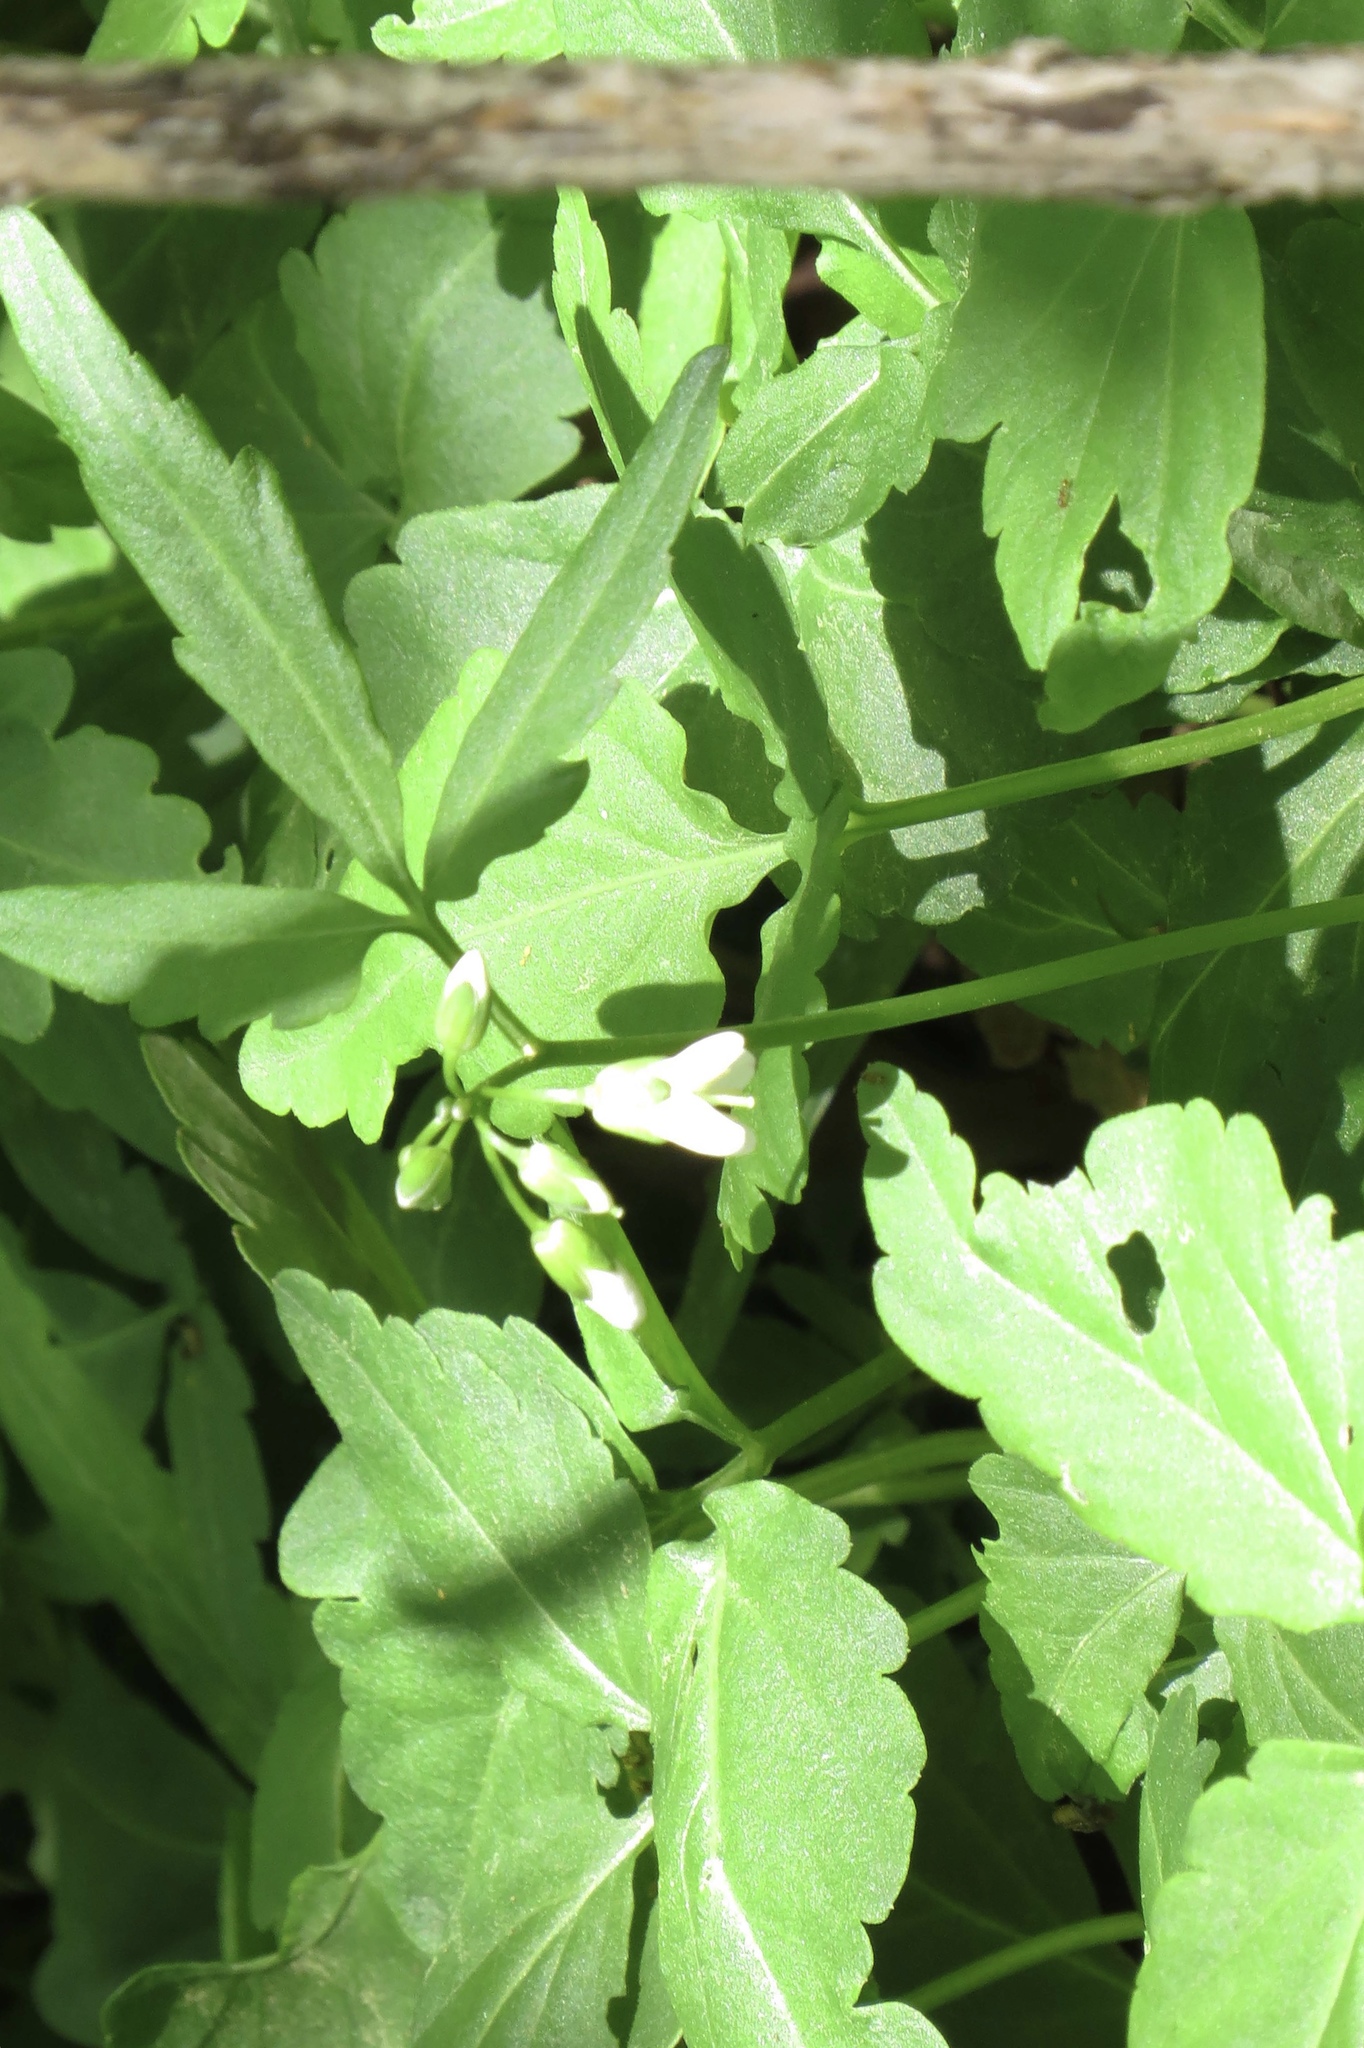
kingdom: Plantae
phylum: Tracheophyta
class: Magnoliopsida
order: Brassicales
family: Brassicaceae
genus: Cardamine
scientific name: Cardamine diphylla
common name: Broad-leaved toothwort
